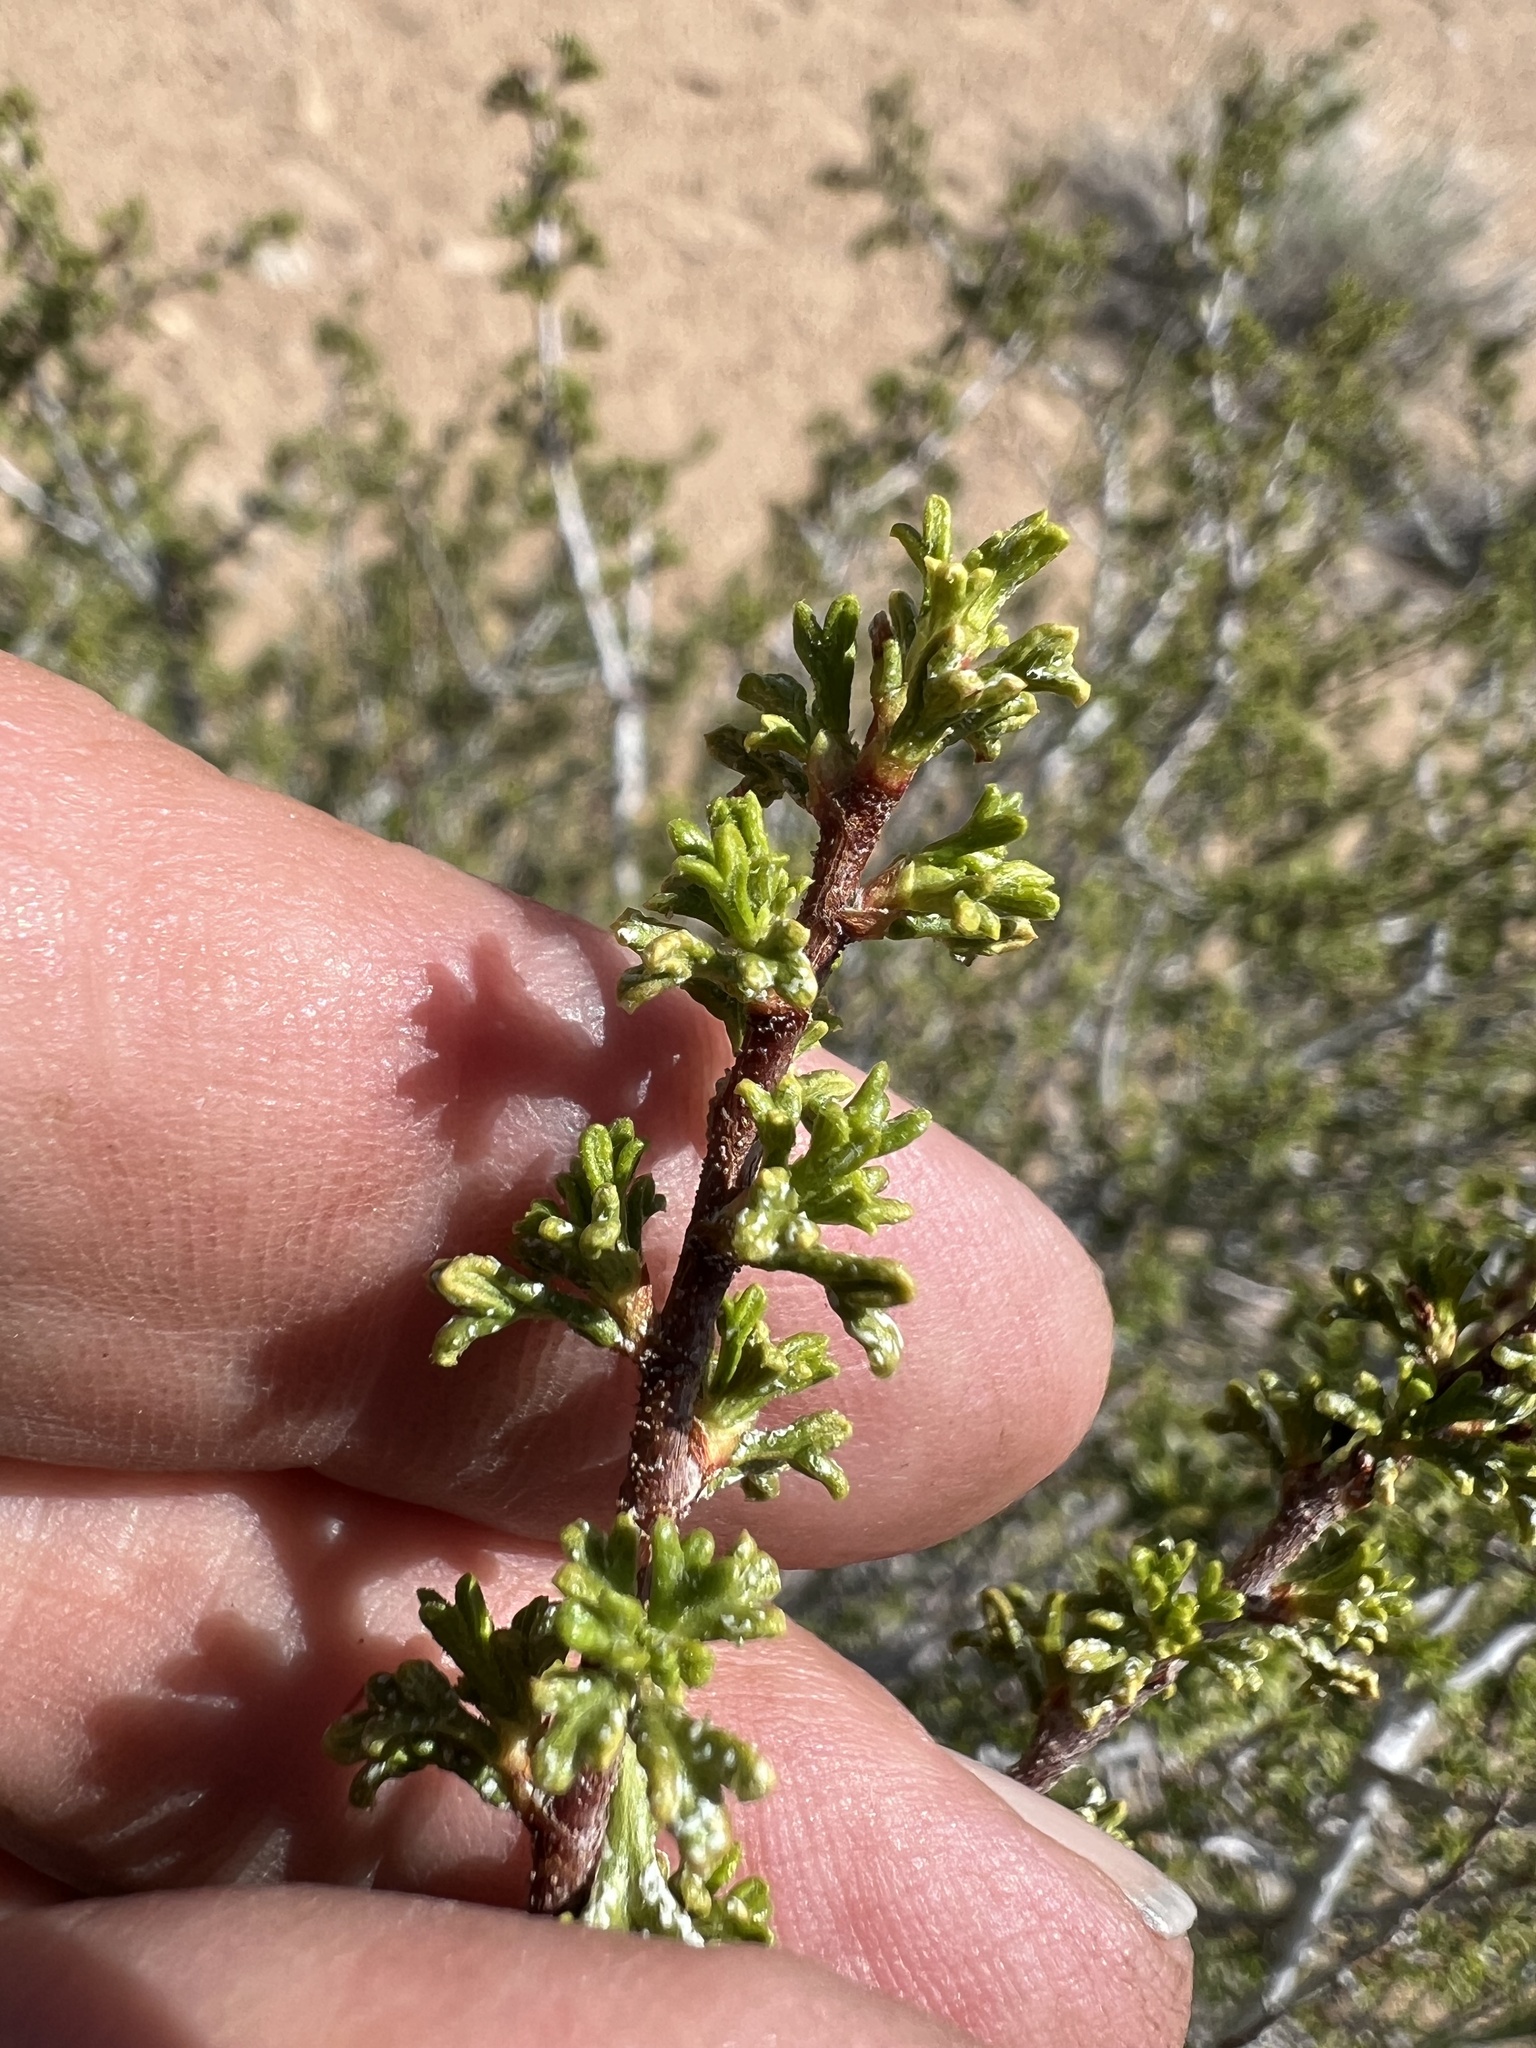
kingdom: Plantae
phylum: Tracheophyta
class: Magnoliopsida
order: Rosales
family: Rosaceae
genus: Purshia
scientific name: Purshia glandulosa
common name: Desert bitterbrush
